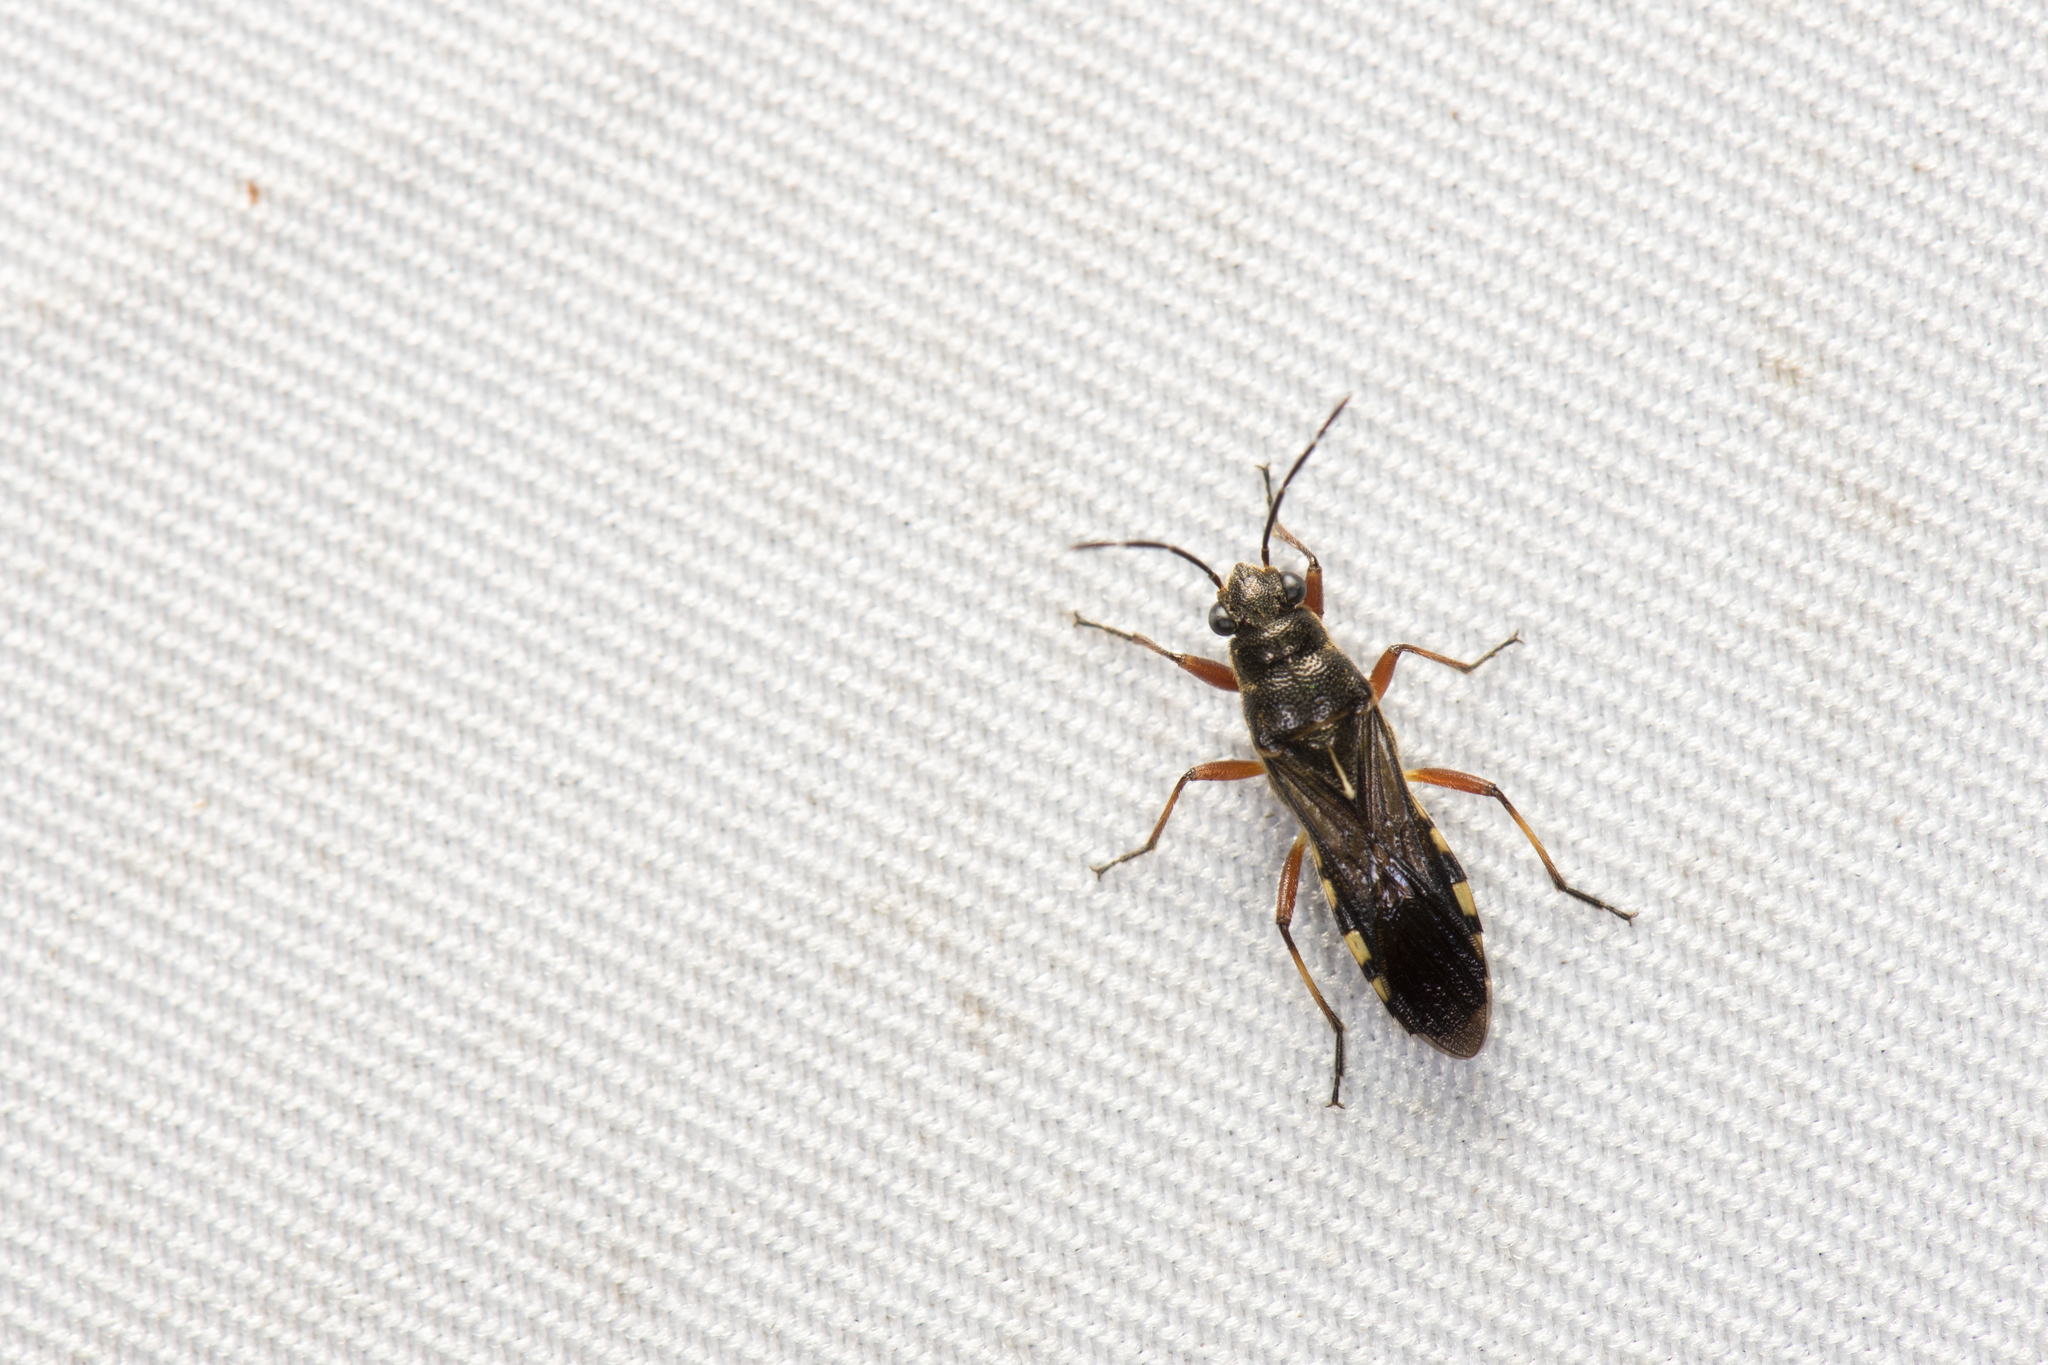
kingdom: Animalia
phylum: Arthropoda
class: Insecta
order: Hemiptera
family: Heterogastridae
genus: Nerthus
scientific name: Nerthus taivanicus
